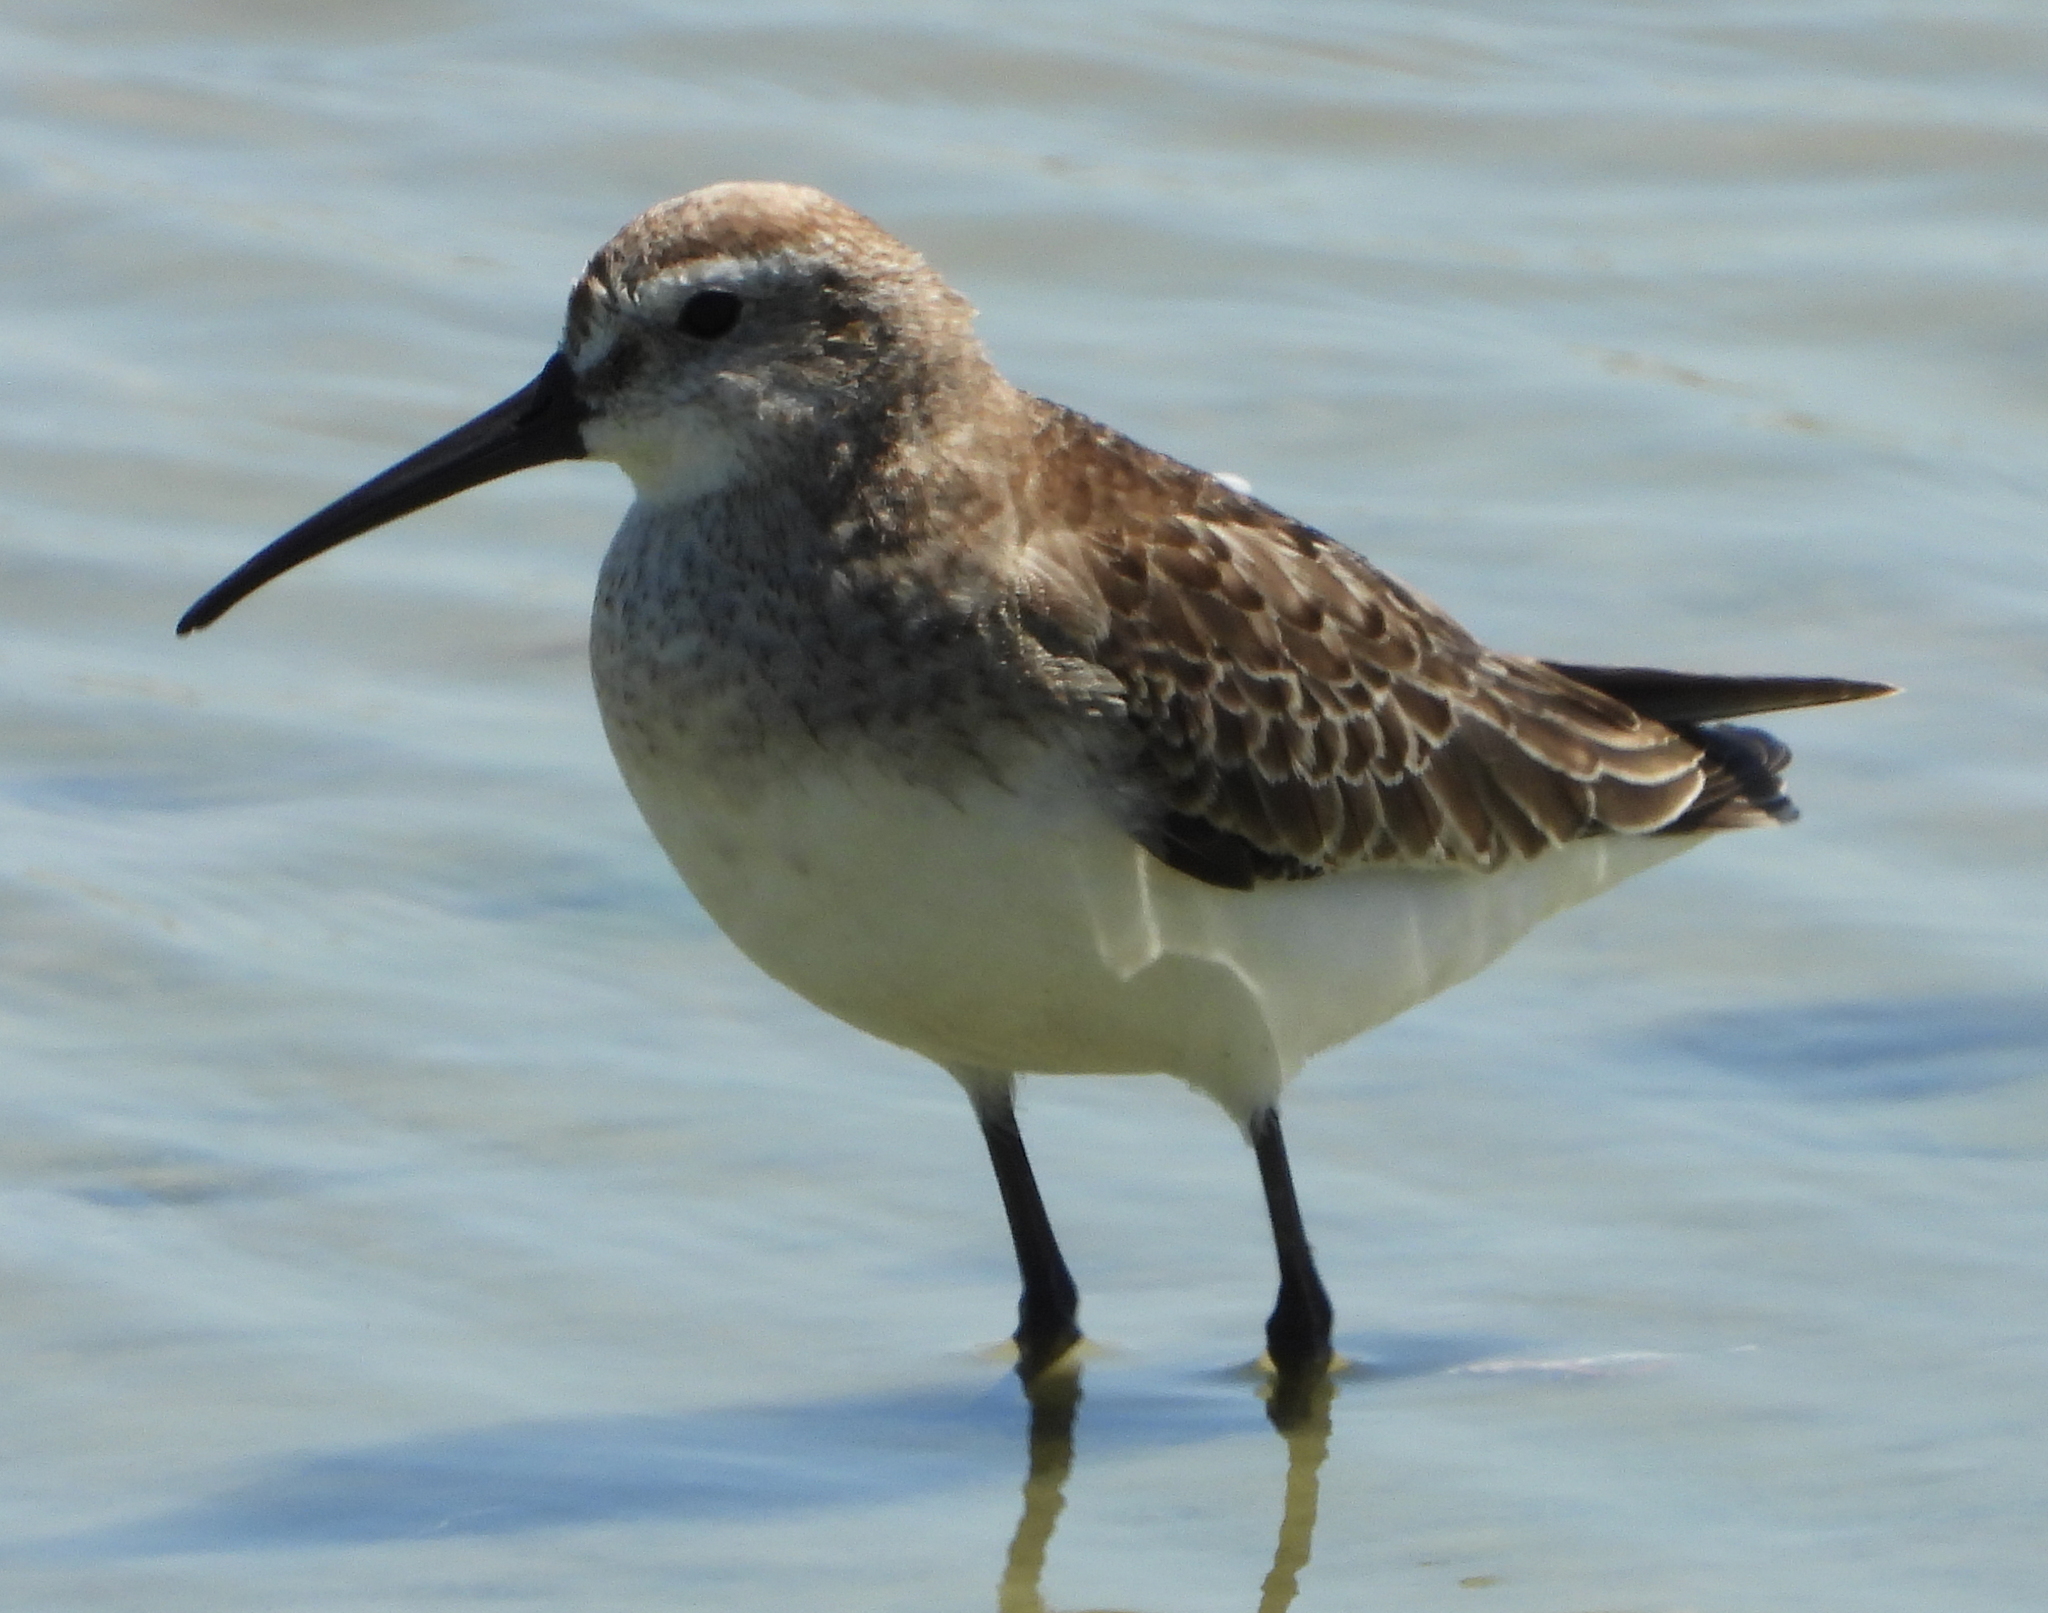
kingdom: Animalia
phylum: Chordata
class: Aves
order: Charadriiformes
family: Scolopacidae
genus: Calidris
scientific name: Calidris ferruginea
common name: Curlew sandpiper
